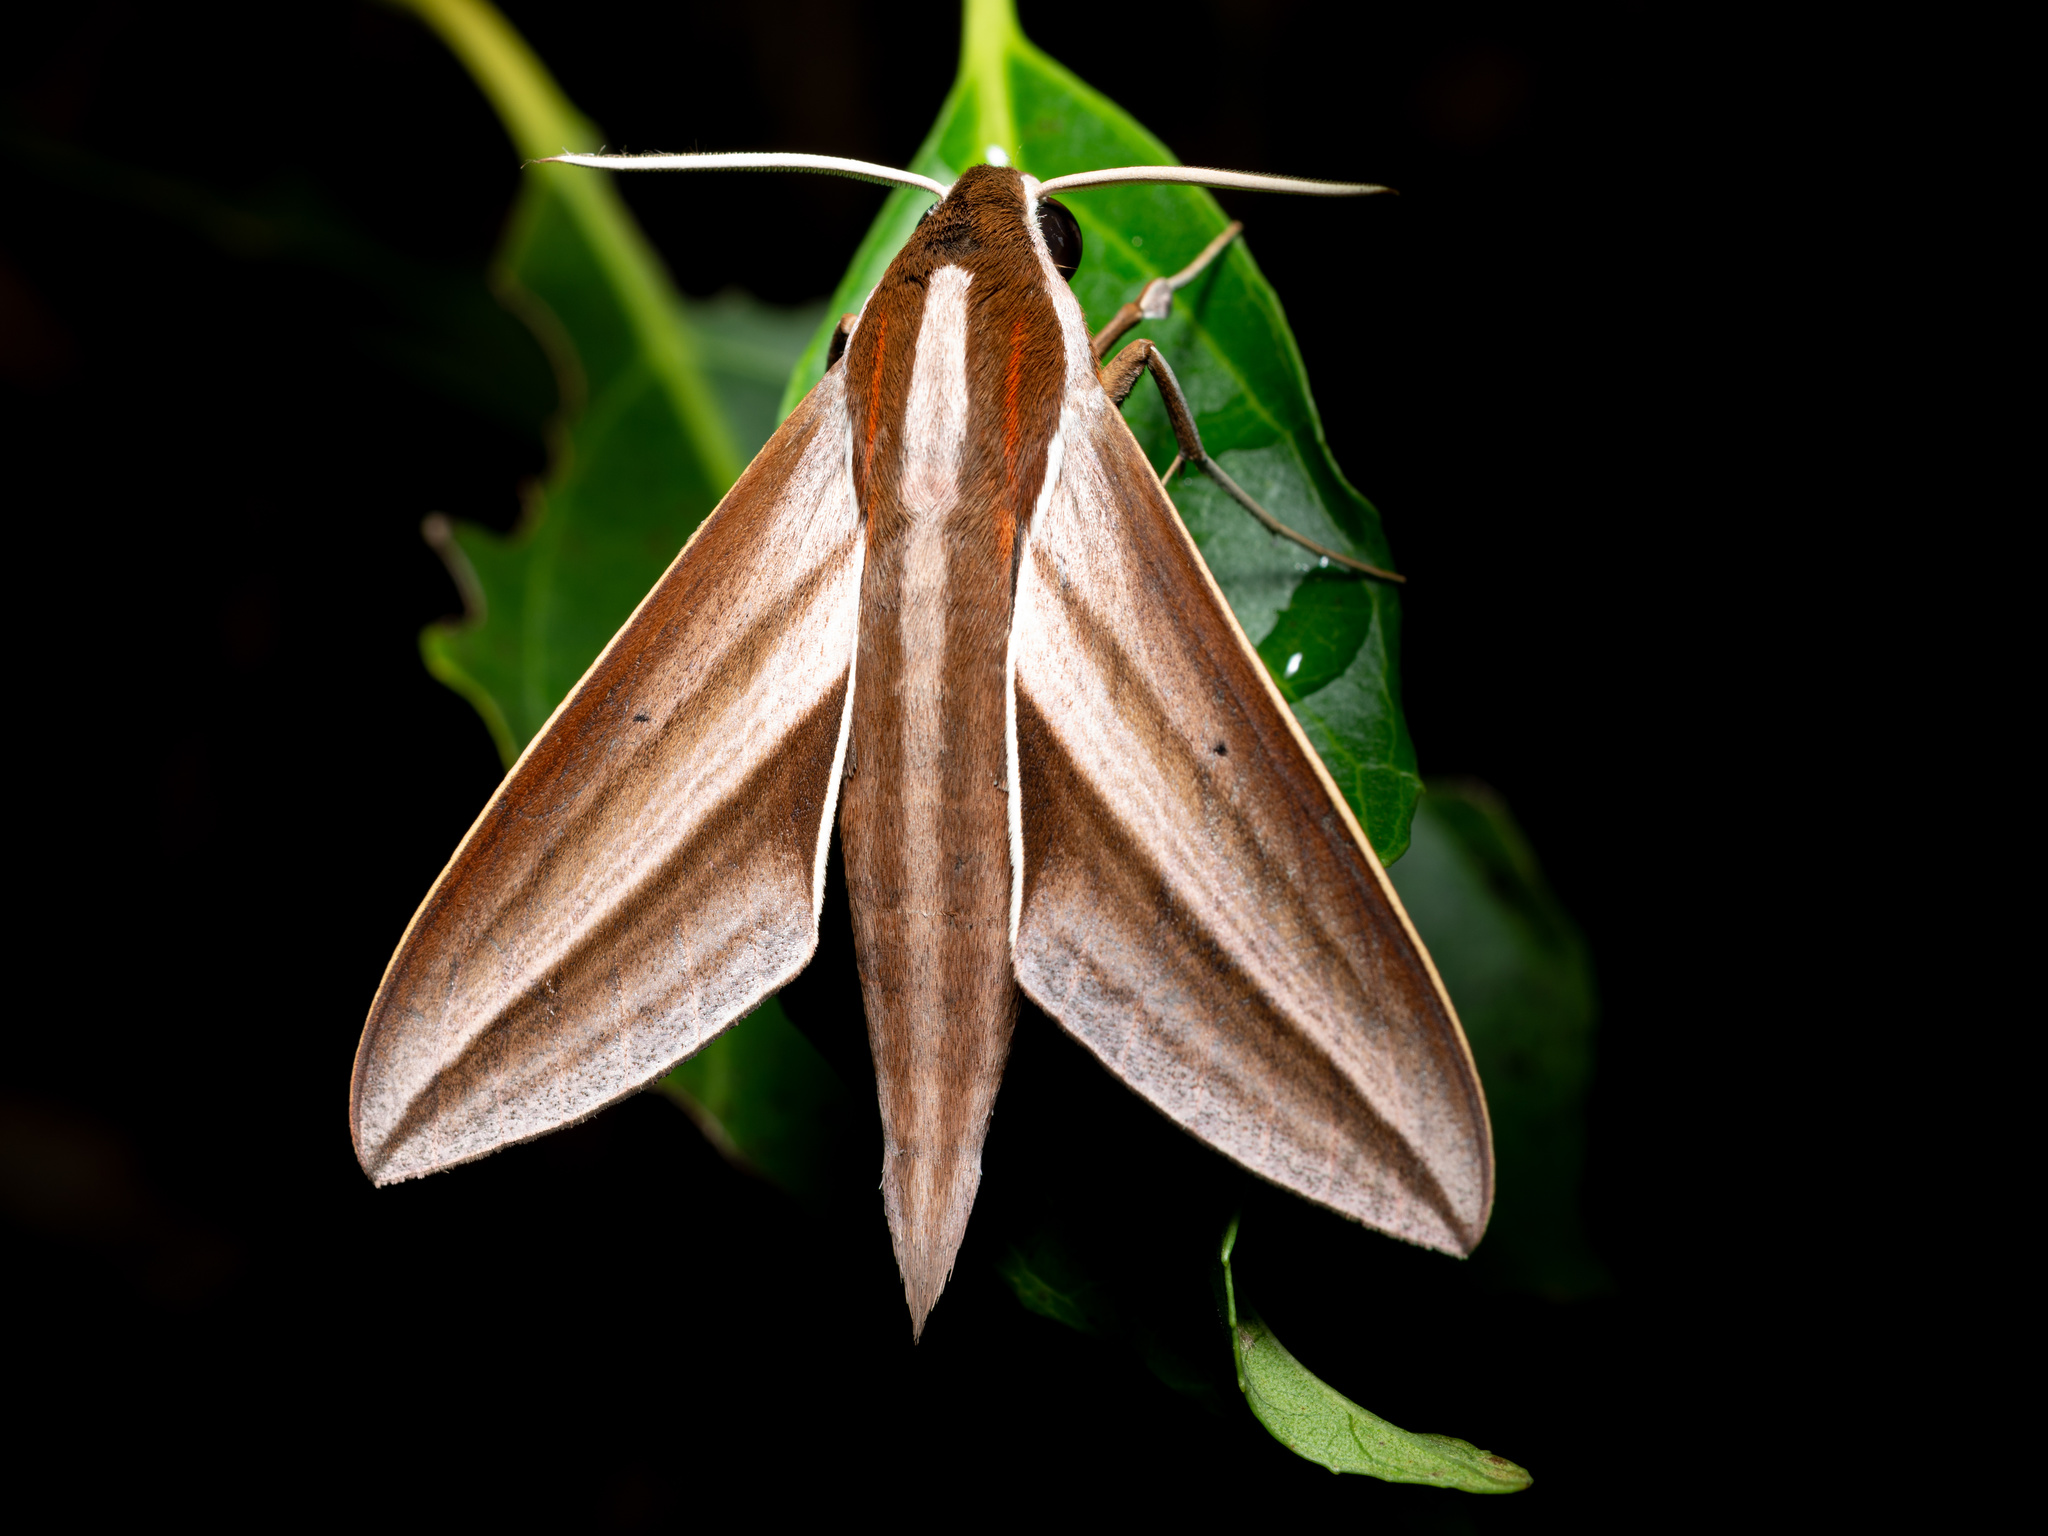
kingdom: Animalia
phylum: Arthropoda
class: Insecta
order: Lepidoptera
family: Sphingidae
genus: Theretra
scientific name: Theretra suffusa
